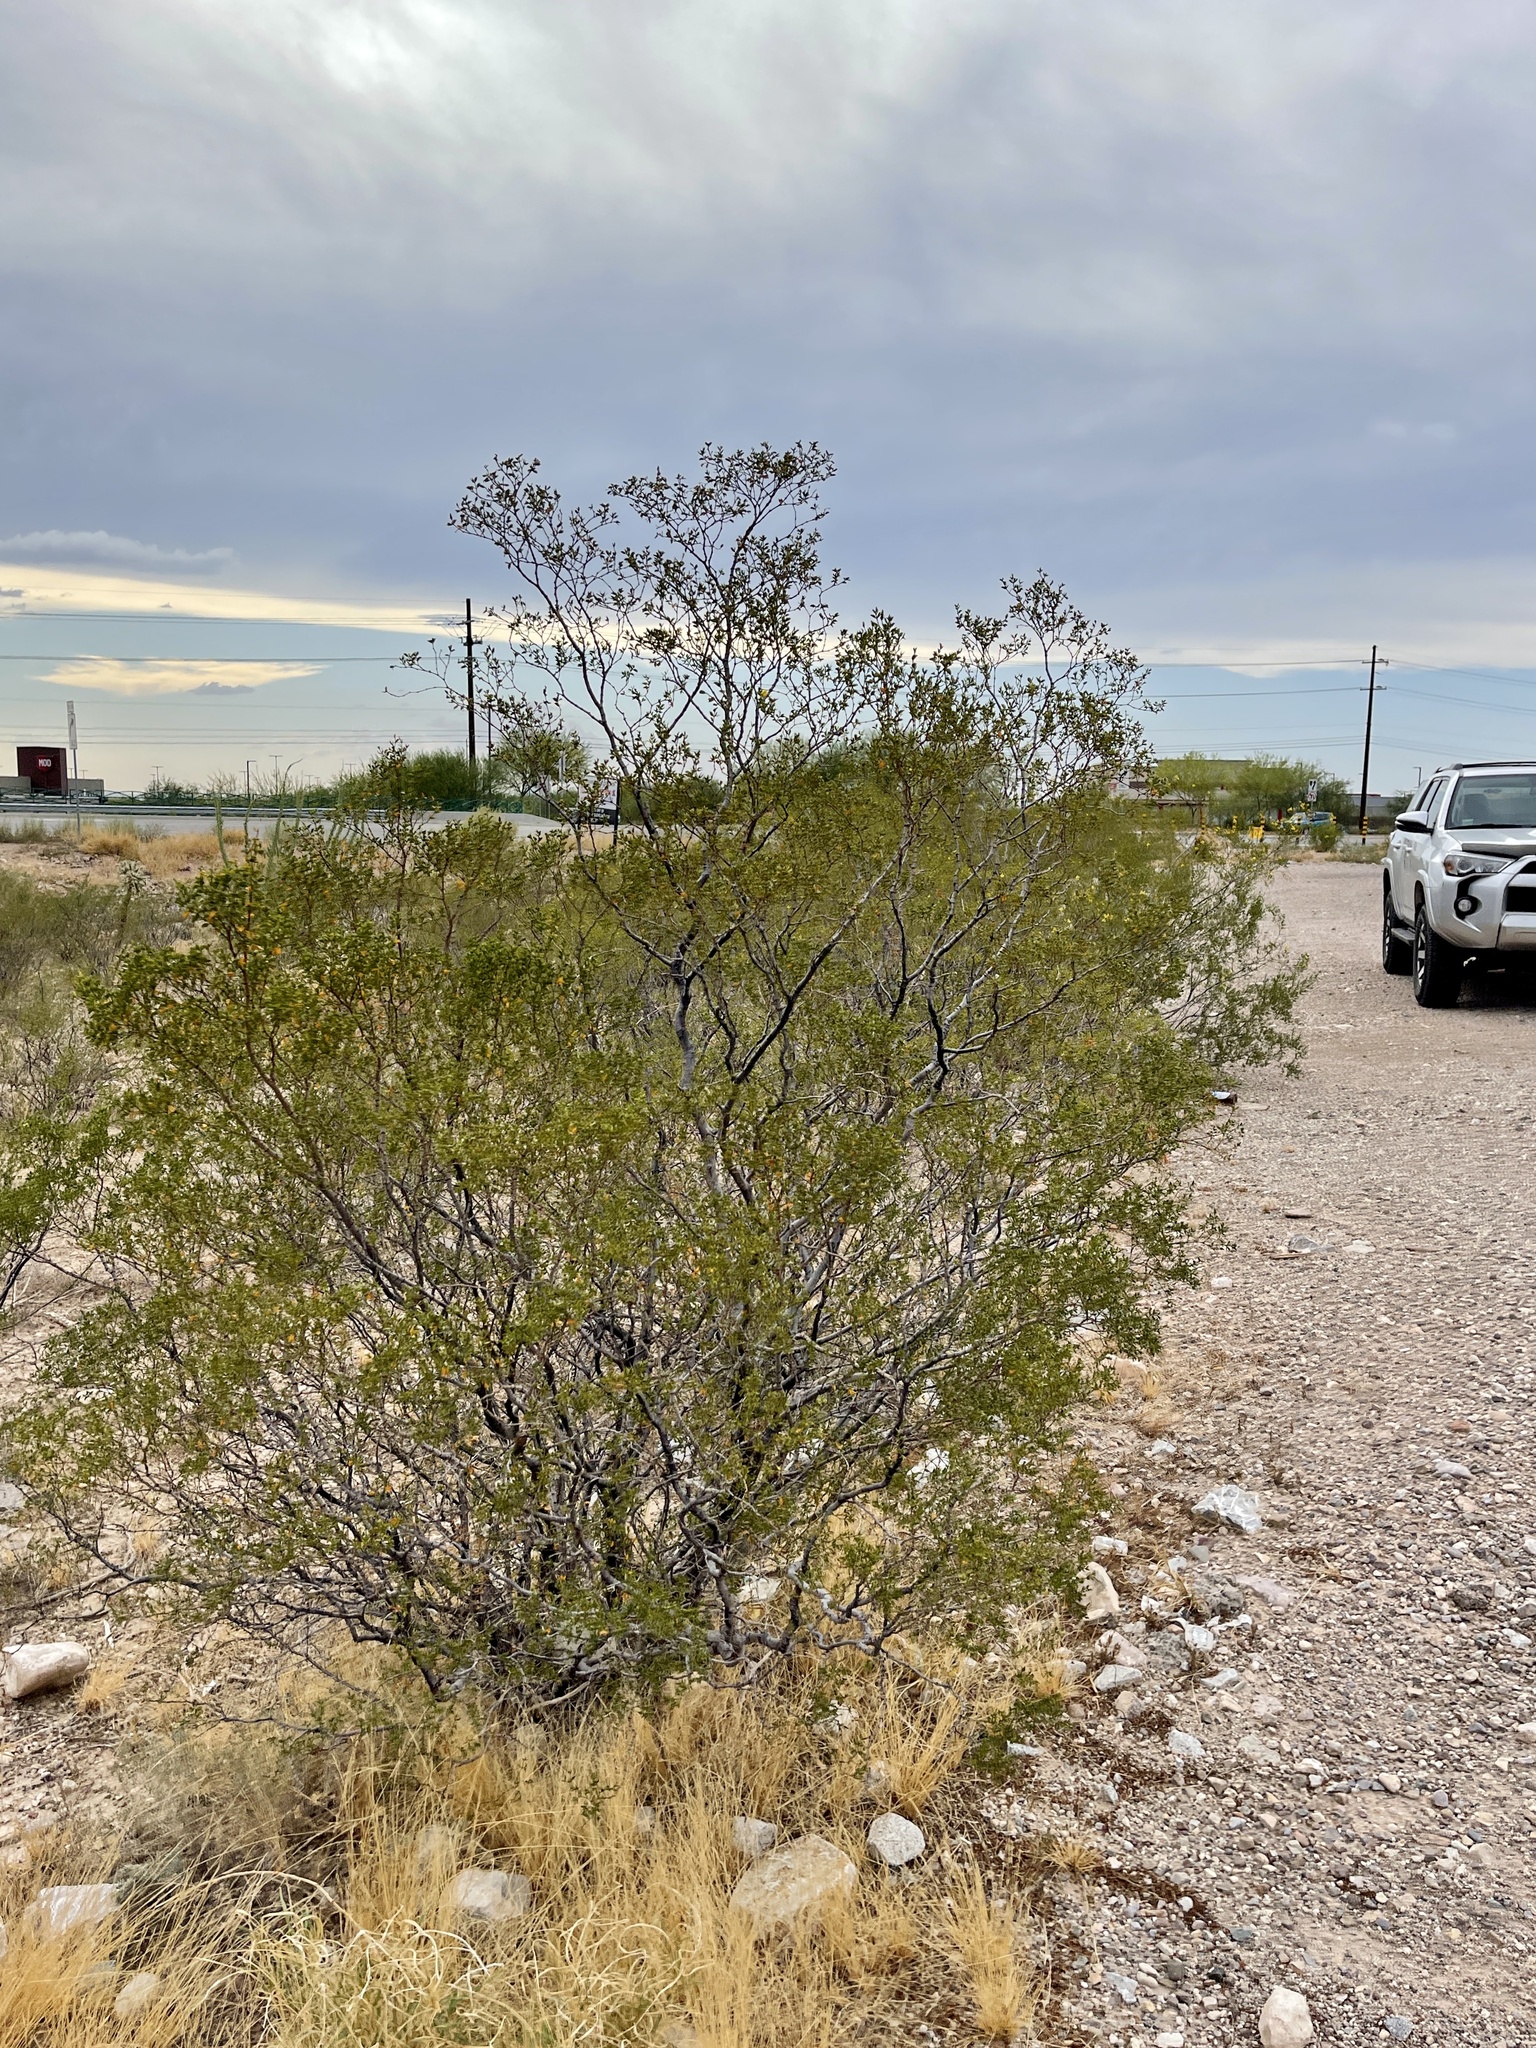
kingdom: Plantae
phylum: Tracheophyta
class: Magnoliopsida
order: Zygophyllales
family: Zygophyllaceae
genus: Larrea
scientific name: Larrea tridentata
